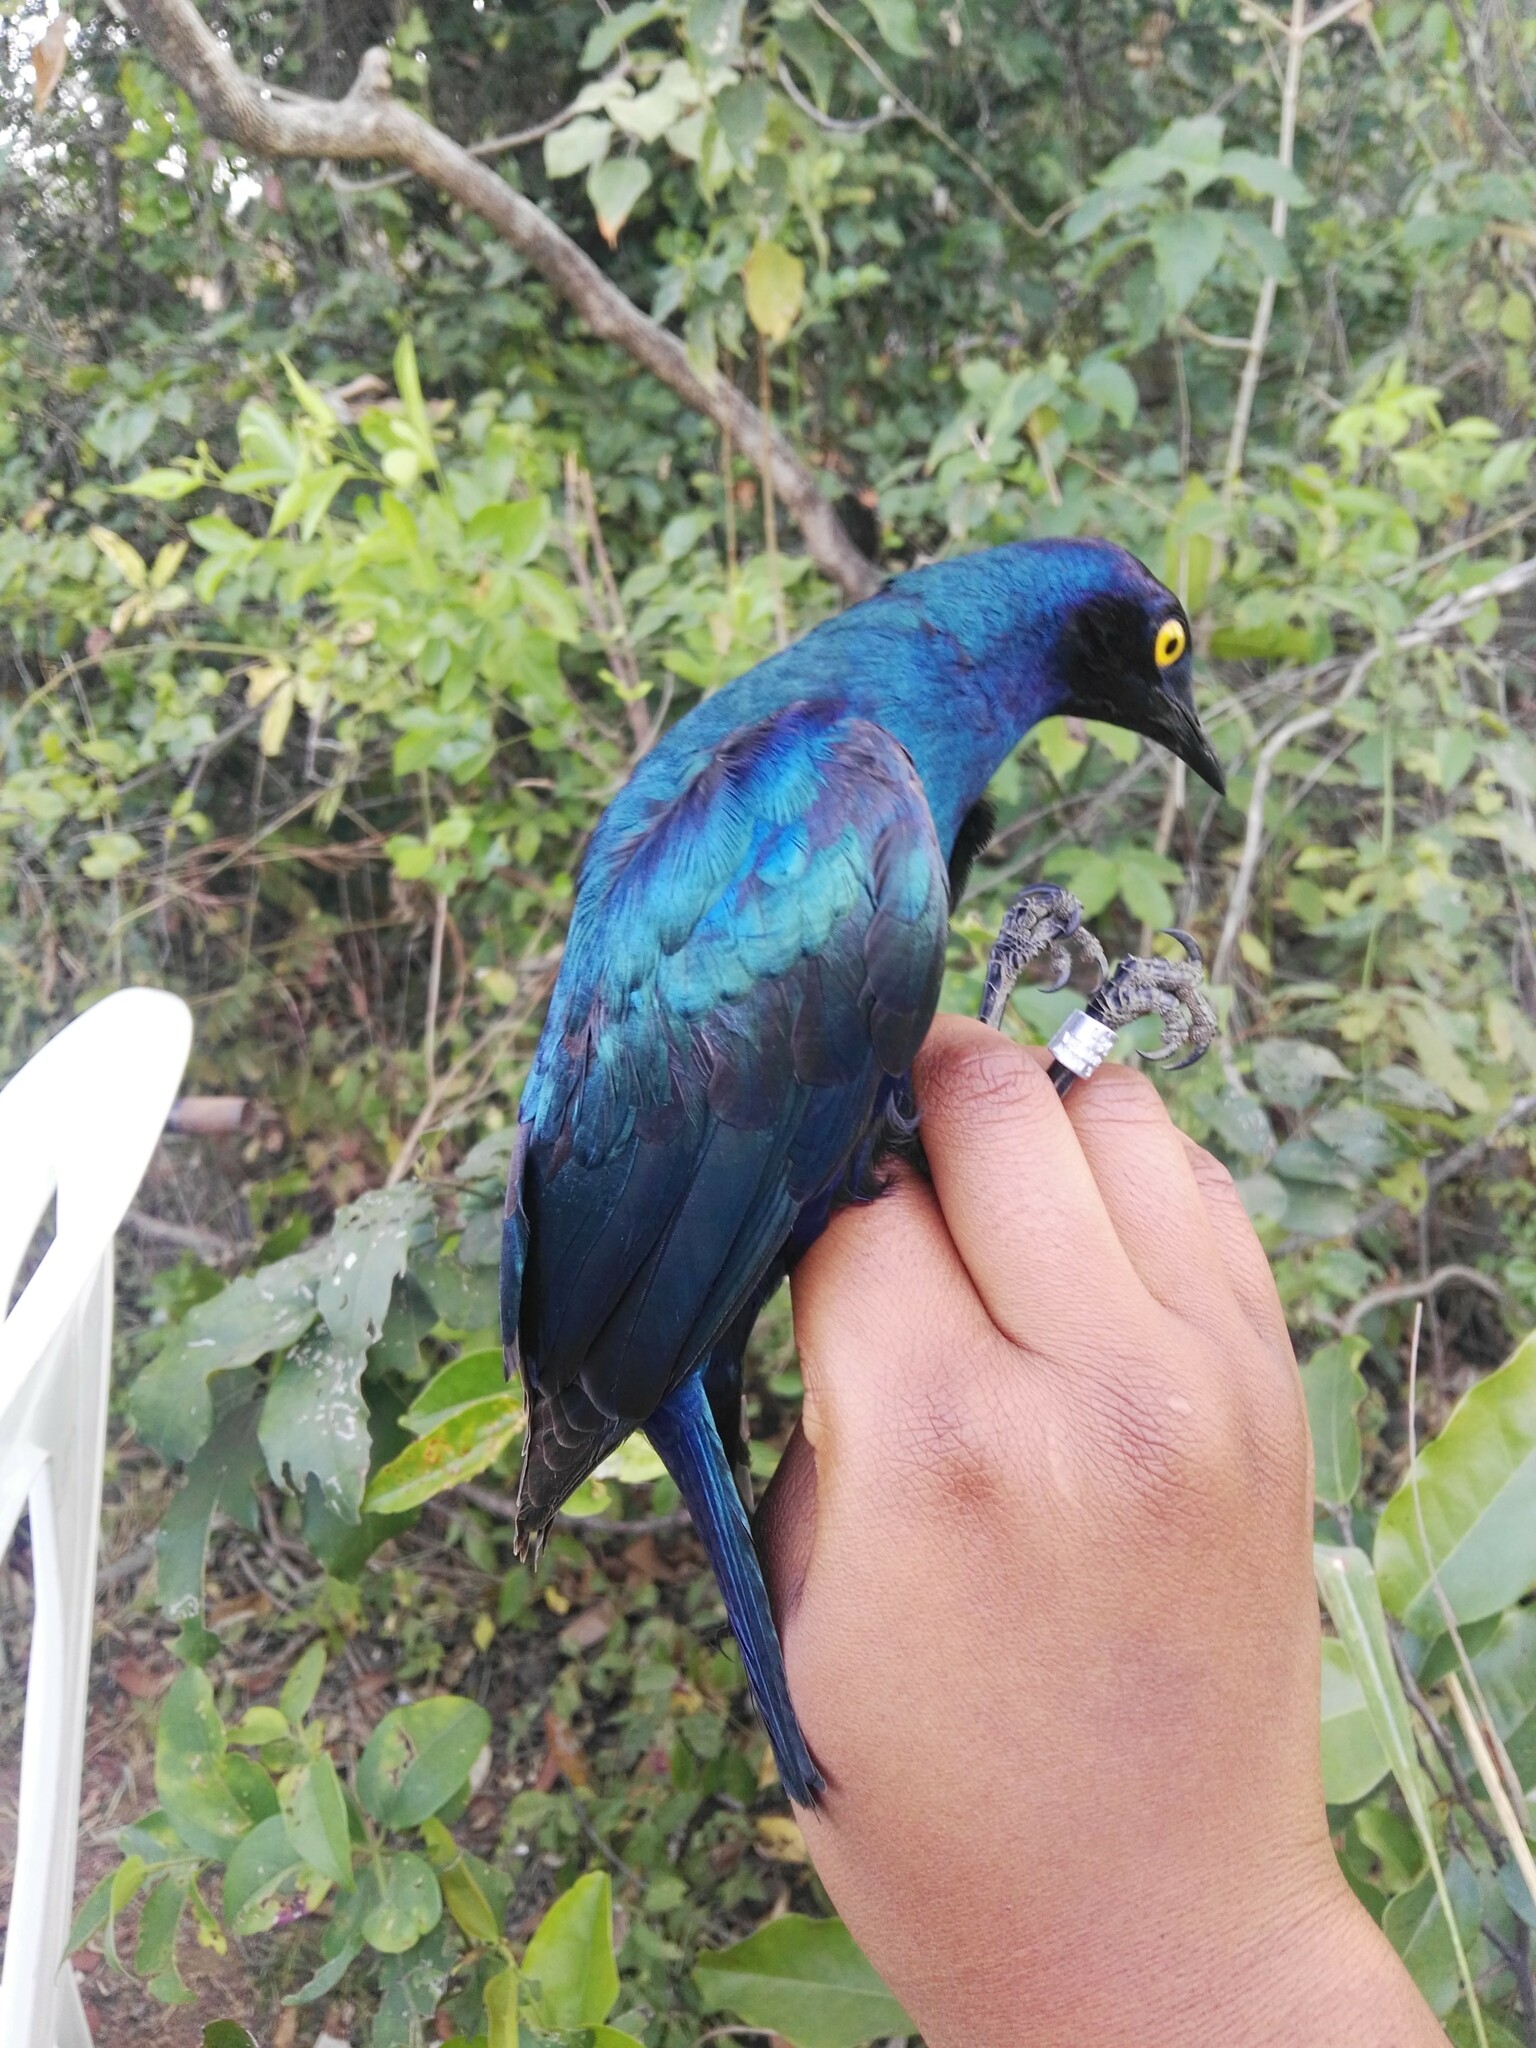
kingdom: Animalia
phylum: Chordata
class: Aves
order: Passeriformes
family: Sturnidae
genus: Lamprotornis
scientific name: Lamprotornis purpureus
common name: Purple starling
